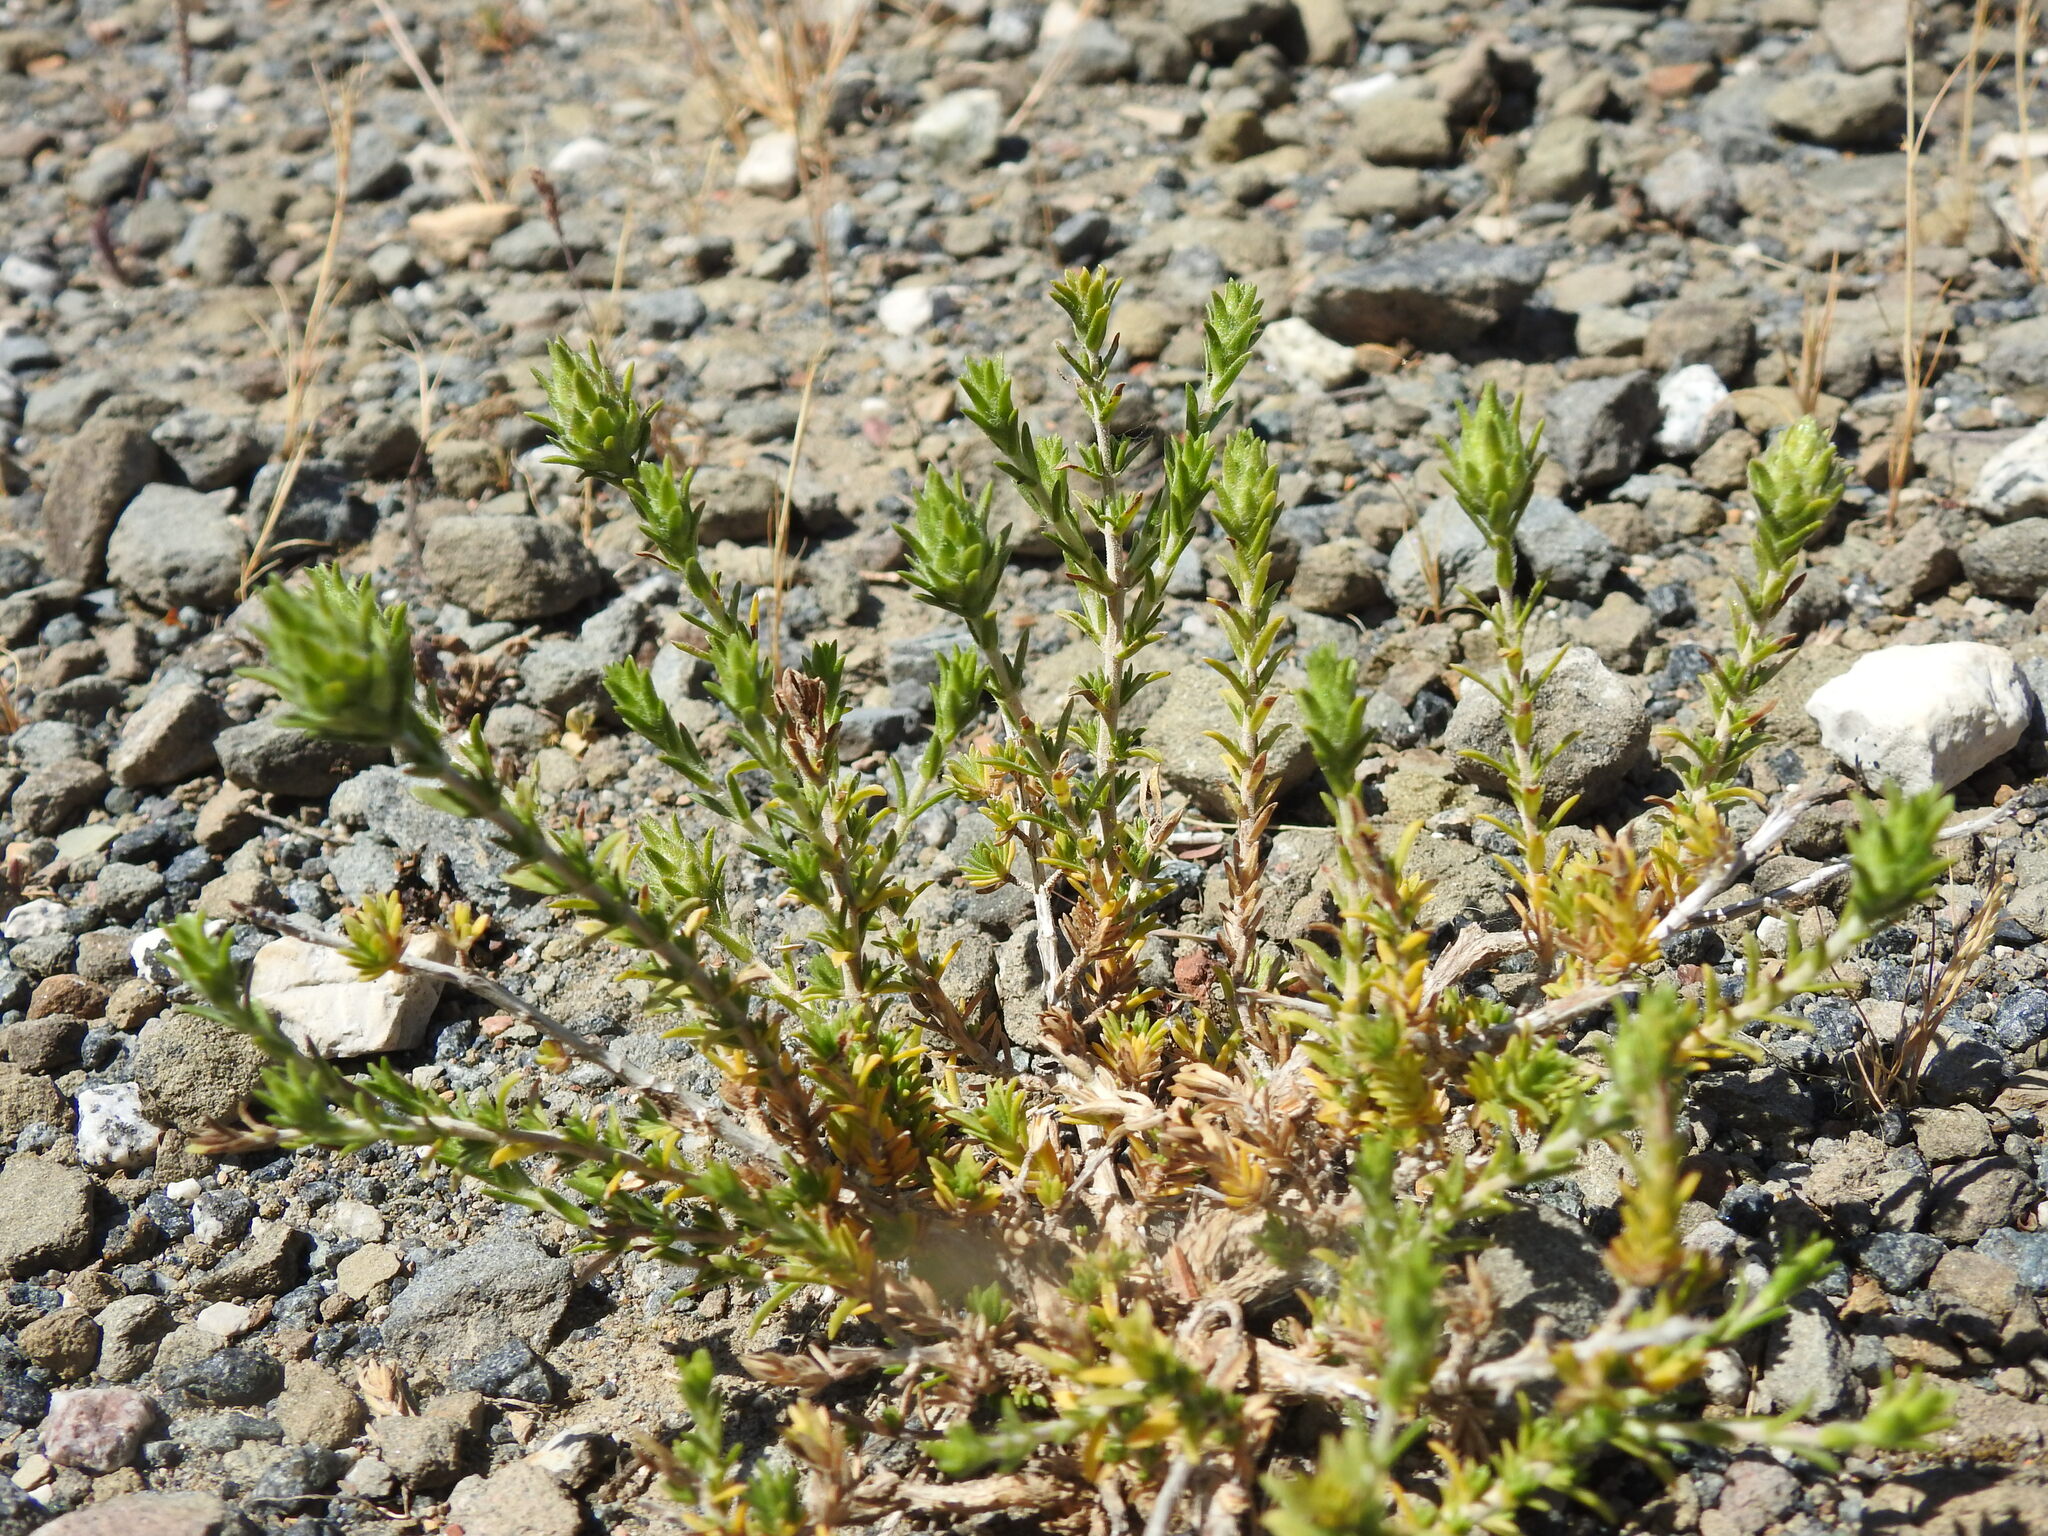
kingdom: Plantae
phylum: Tracheophyta
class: Magnoliopsida
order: Lamiales
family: Lamiaceae
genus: Thymbra
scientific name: Thymbra capitata
